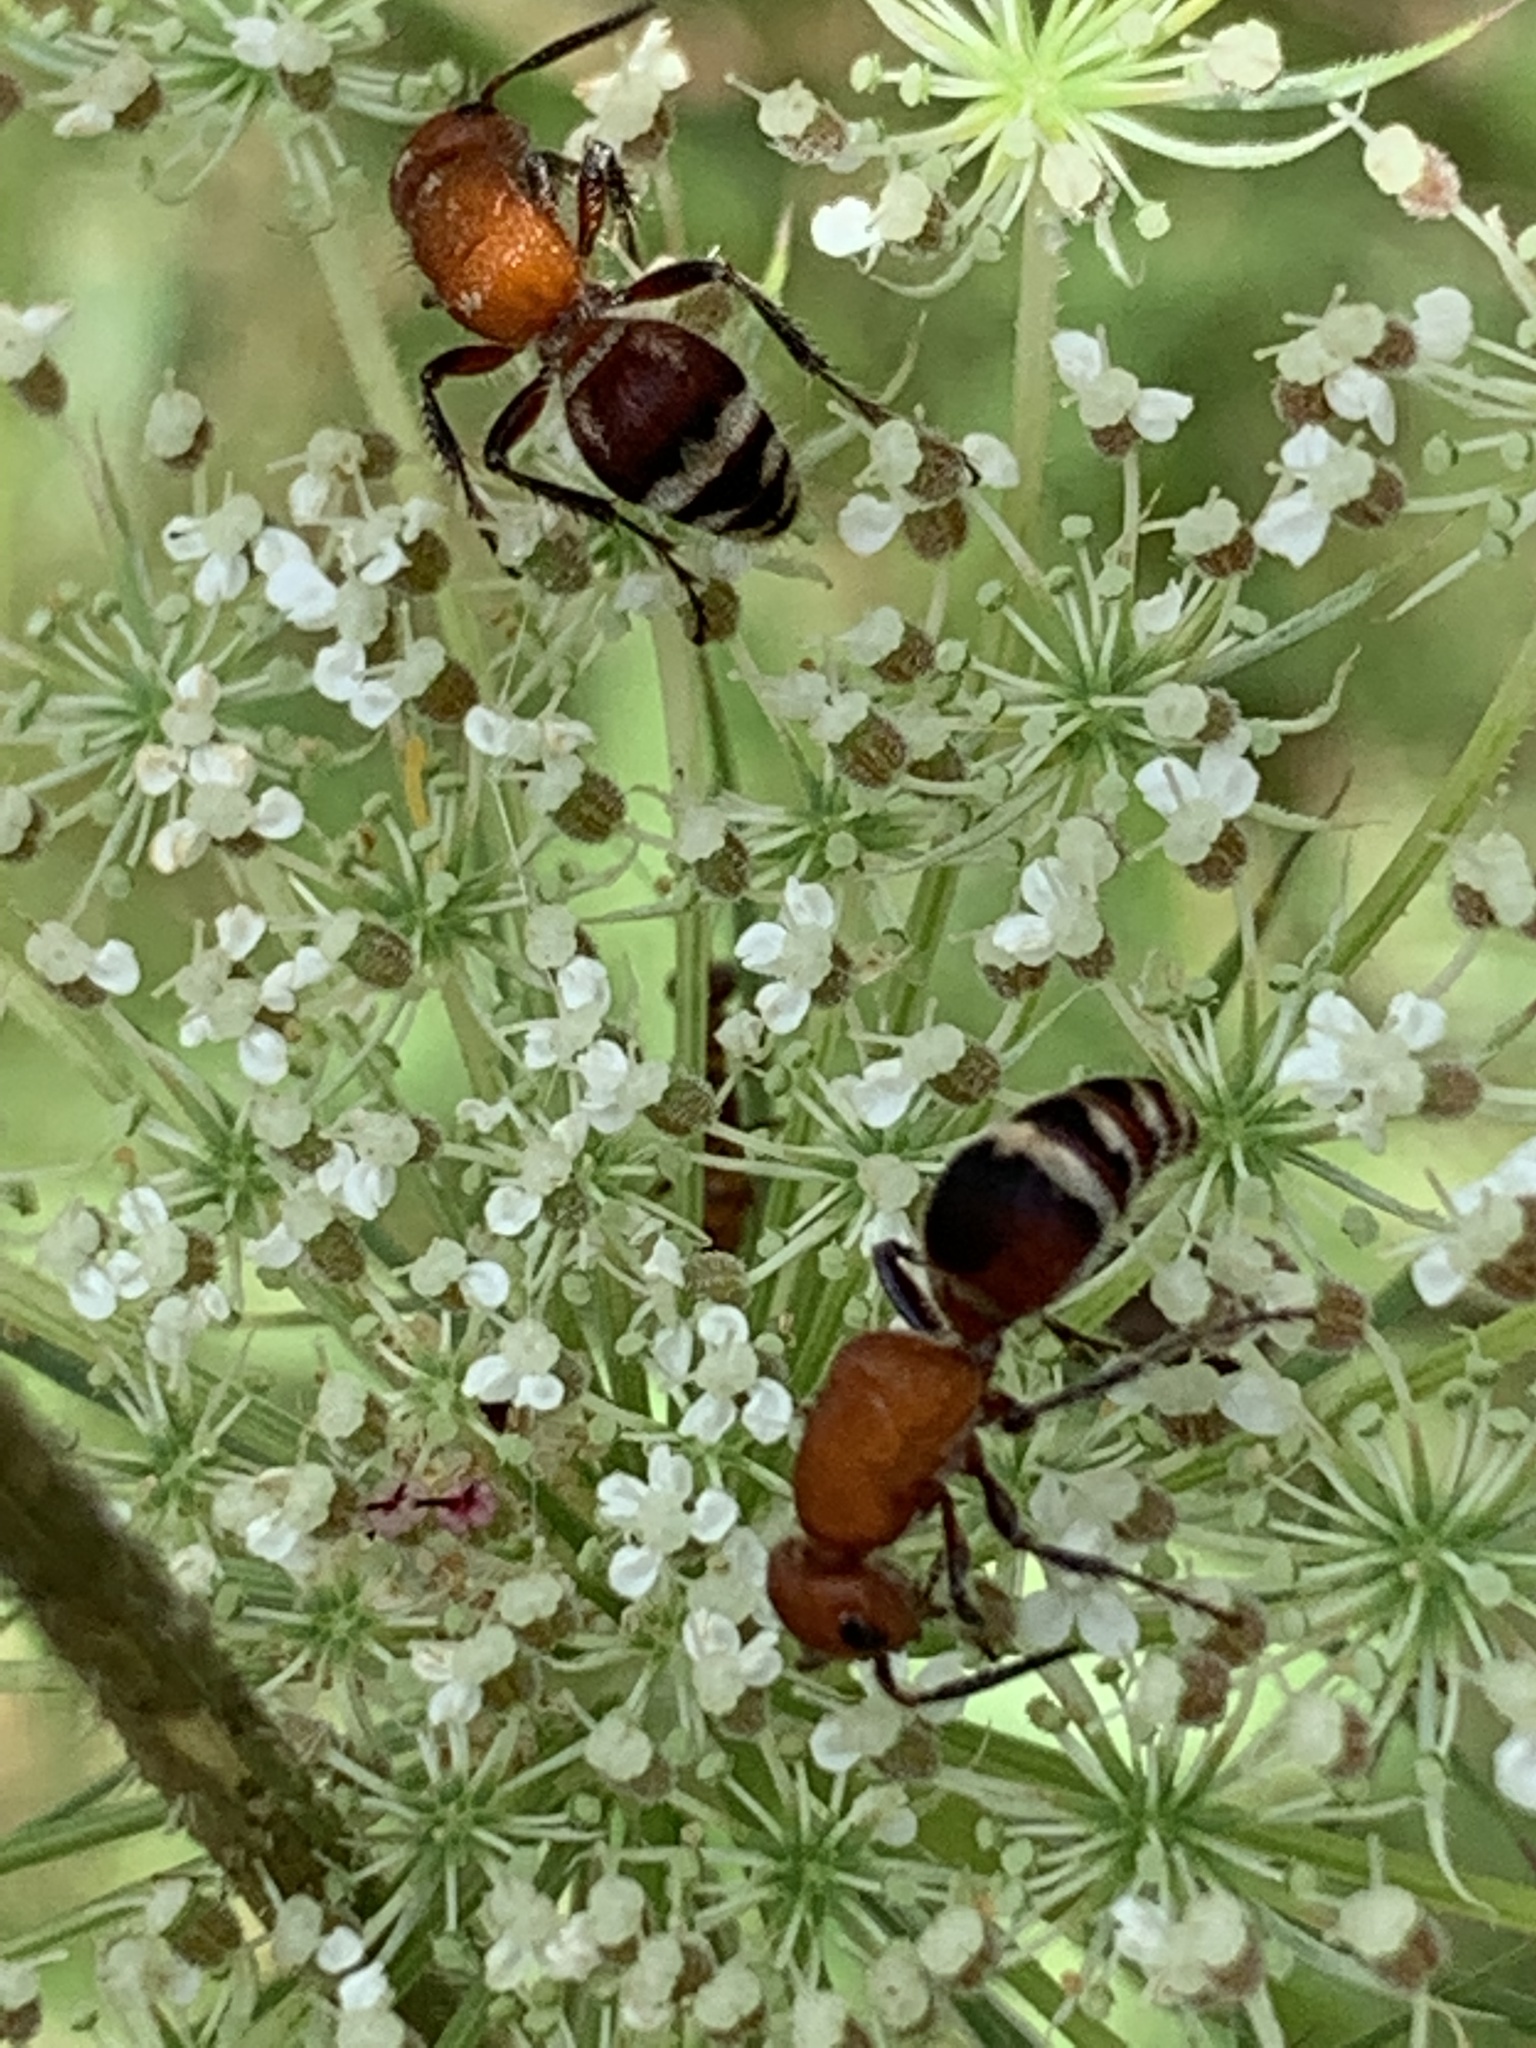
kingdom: Animalia
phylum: Arthropoda
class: Insecta
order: Hymenoptera
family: Mutillidae
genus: Timulla
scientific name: Timulla
